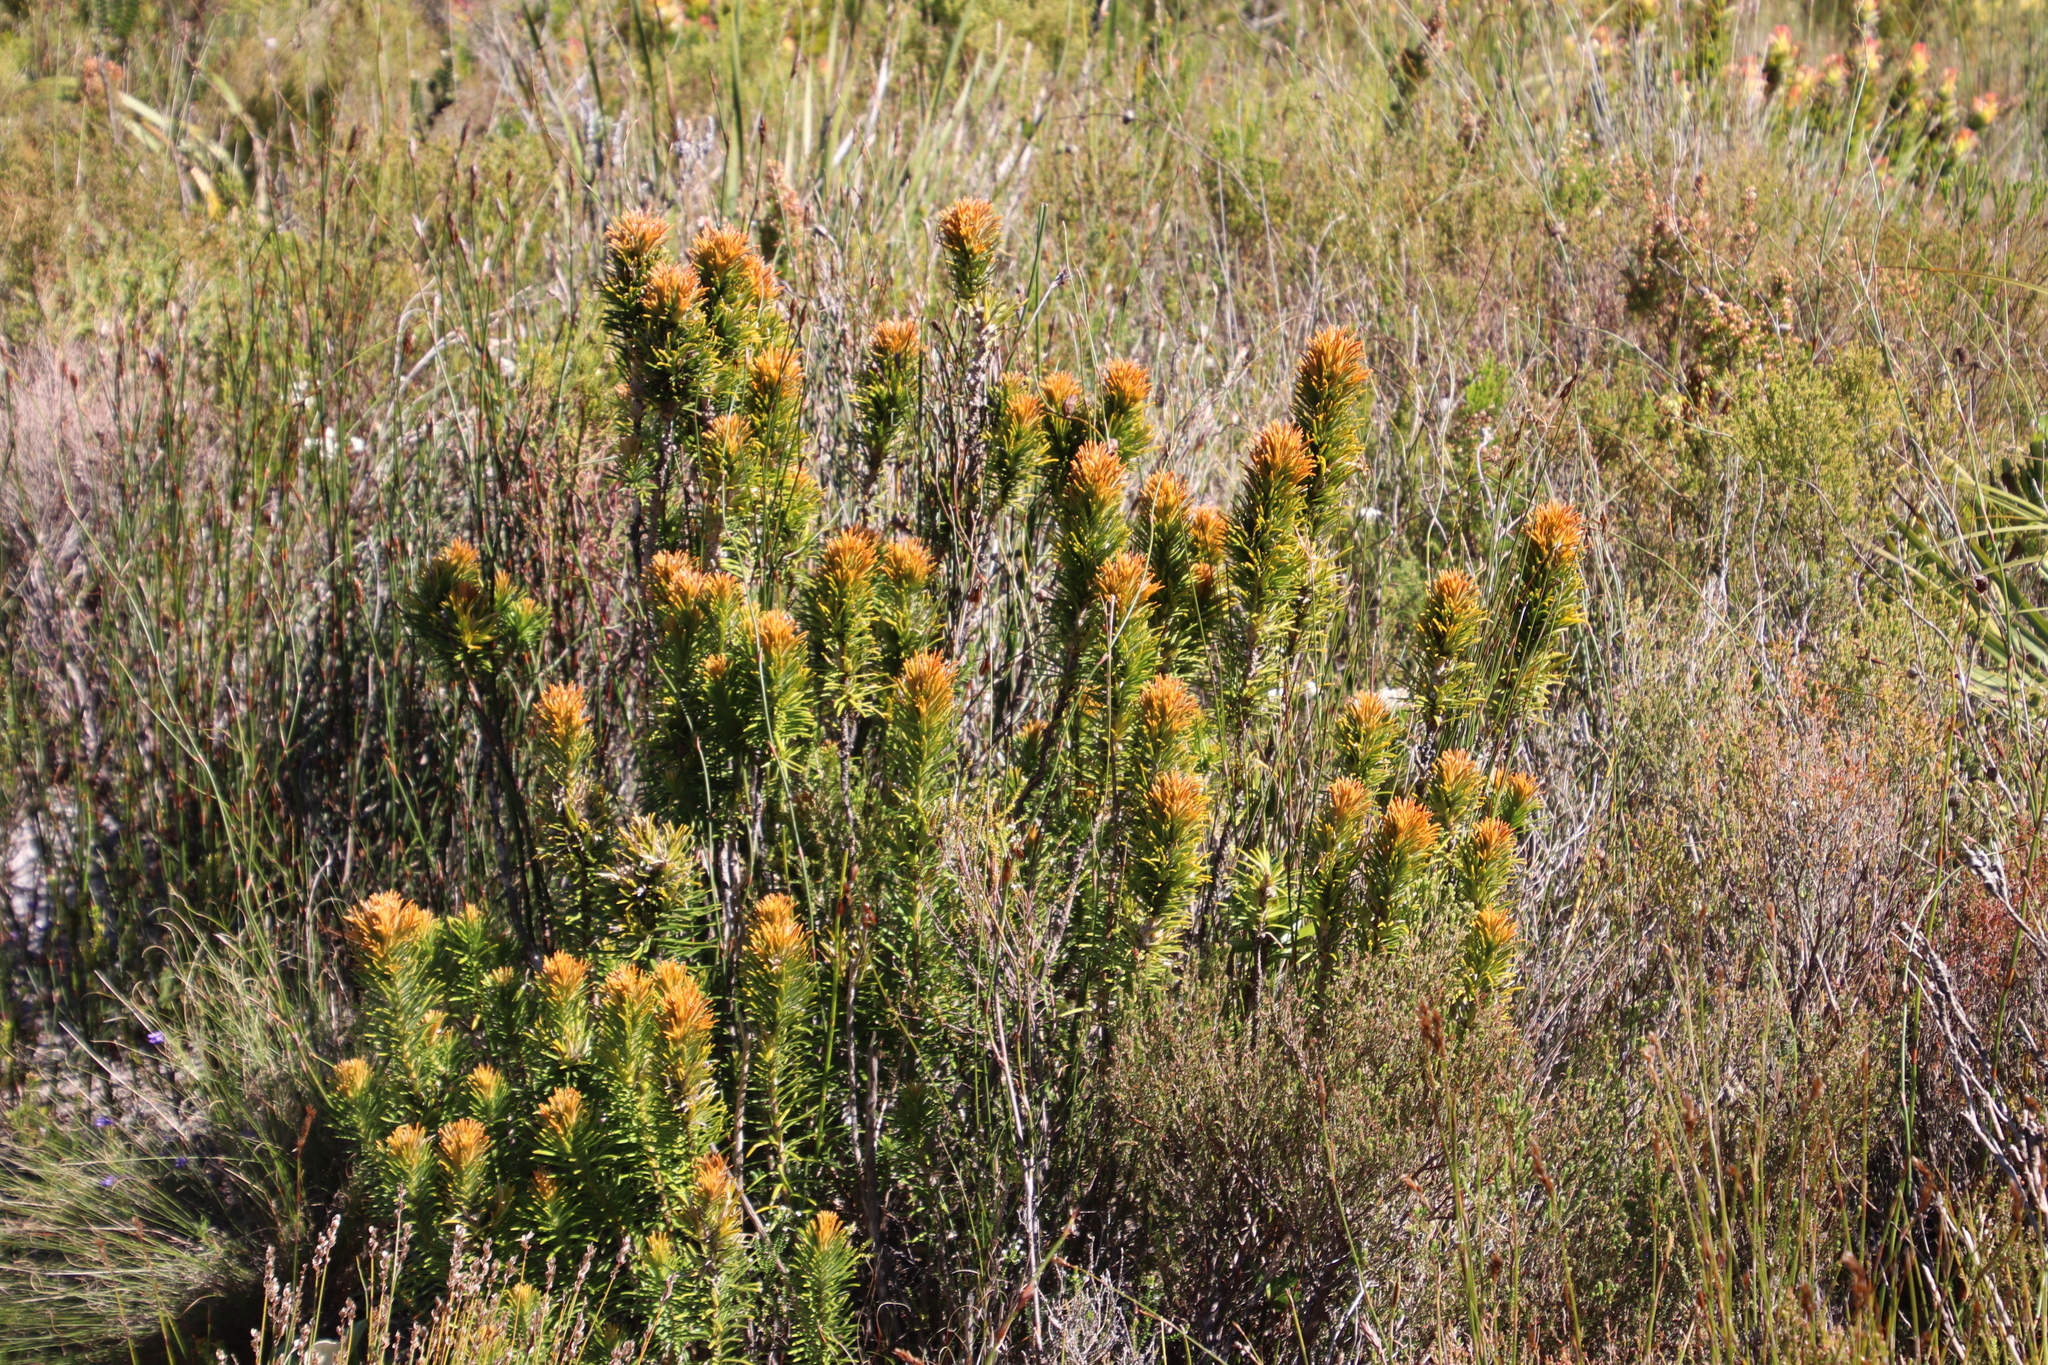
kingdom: Plantae
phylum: Tracheophyta
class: Magnoliopsida
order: Lamiales
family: Stilbaceae
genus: Retzia
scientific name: Retzia capensis
